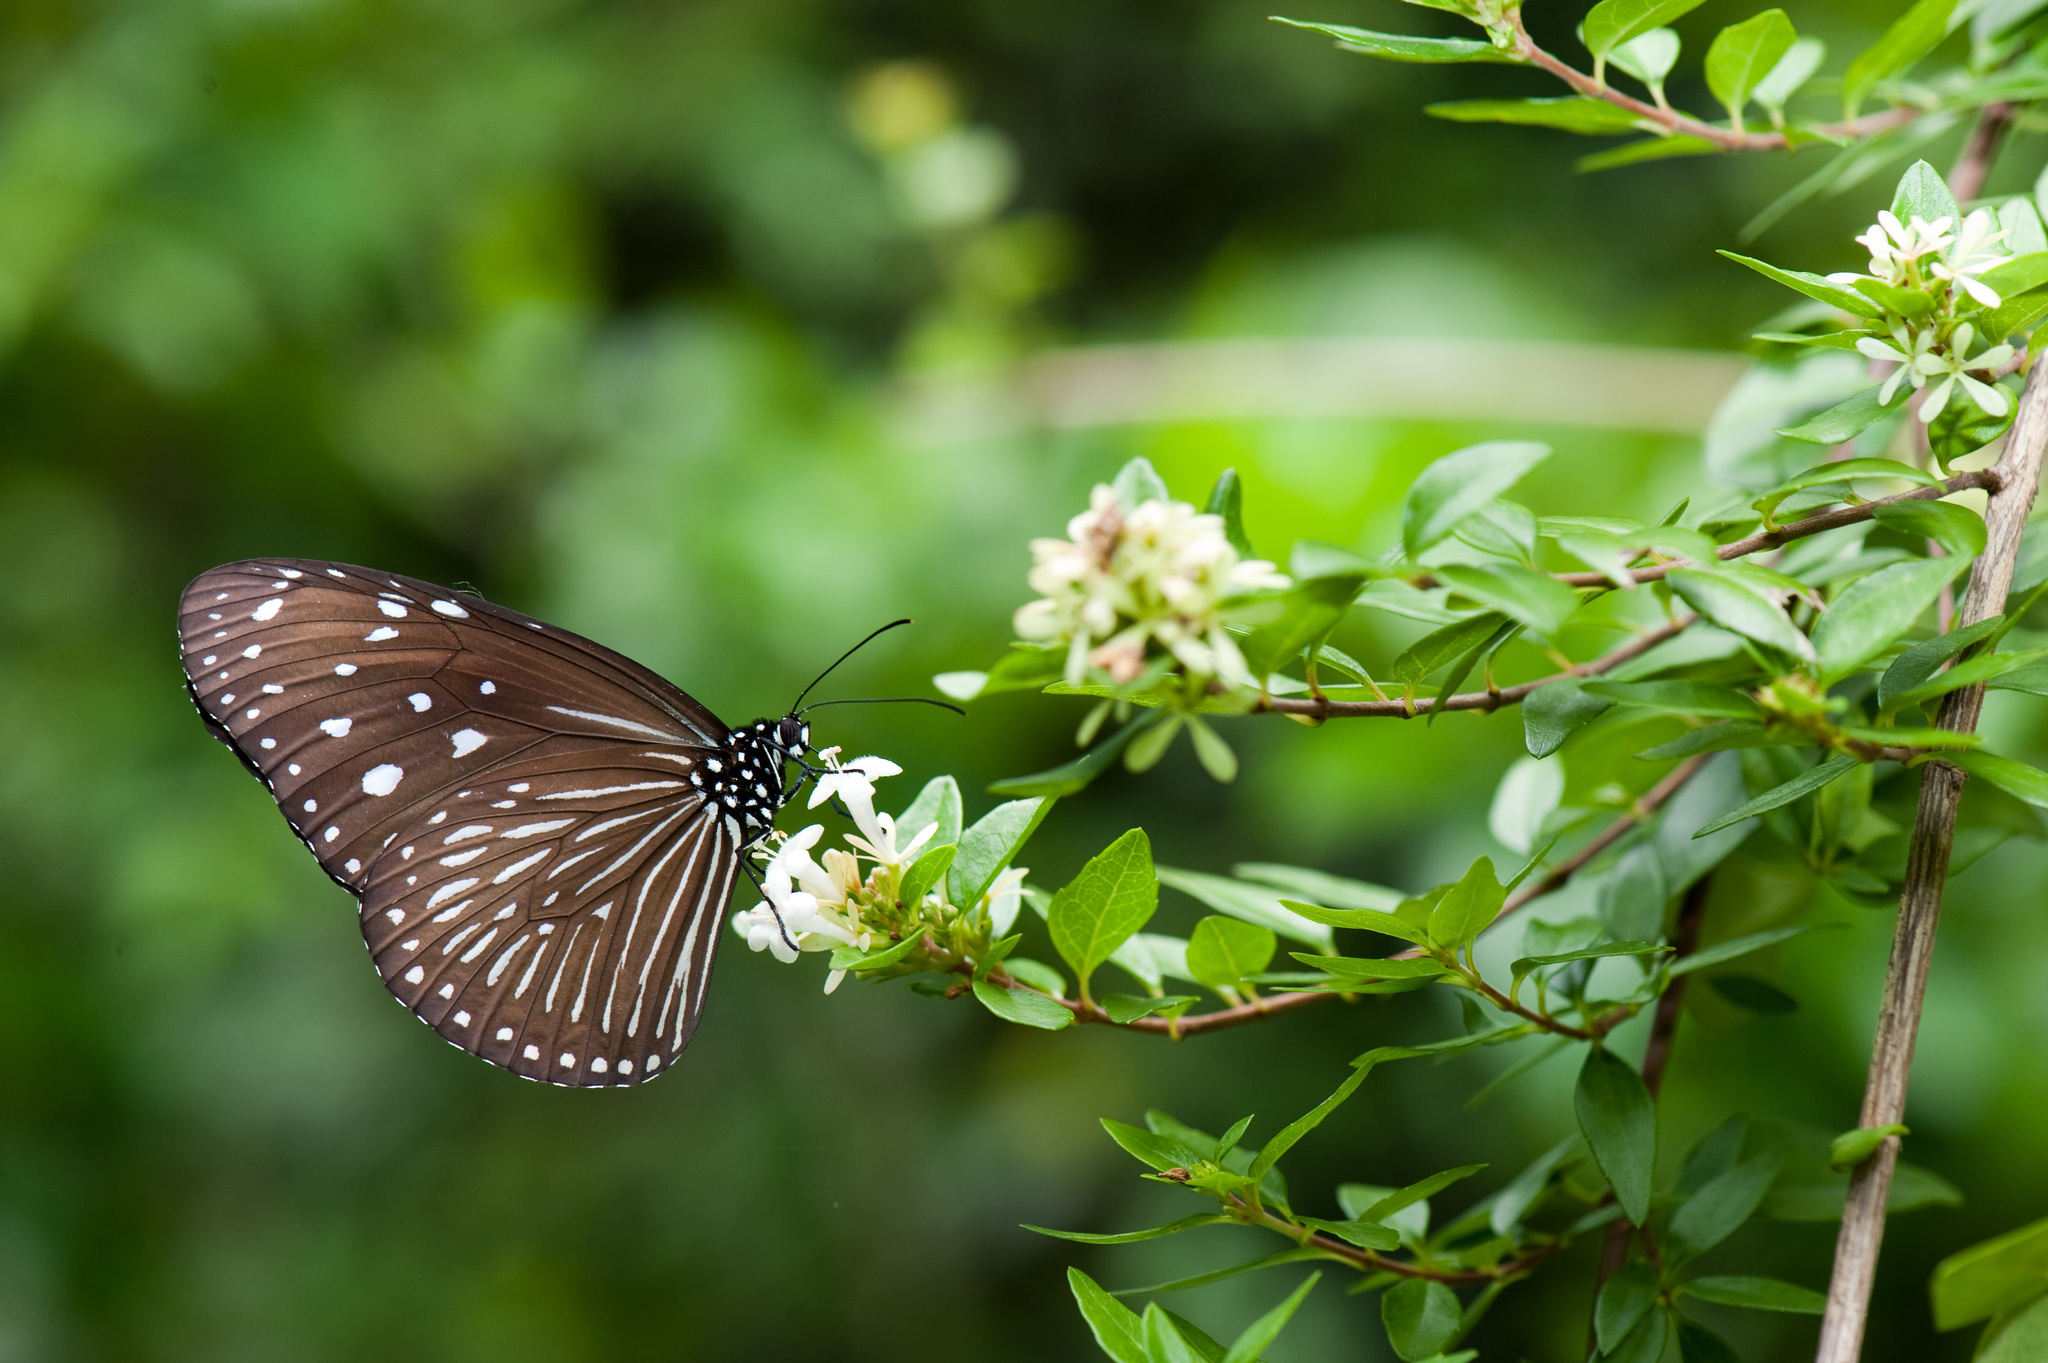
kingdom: Animalia
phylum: Arthropoda
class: Insecta
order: Lepidoptera
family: Nymphalidae
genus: Euploea
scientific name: Euploea mulciber
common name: Striped blue crow butterfly
